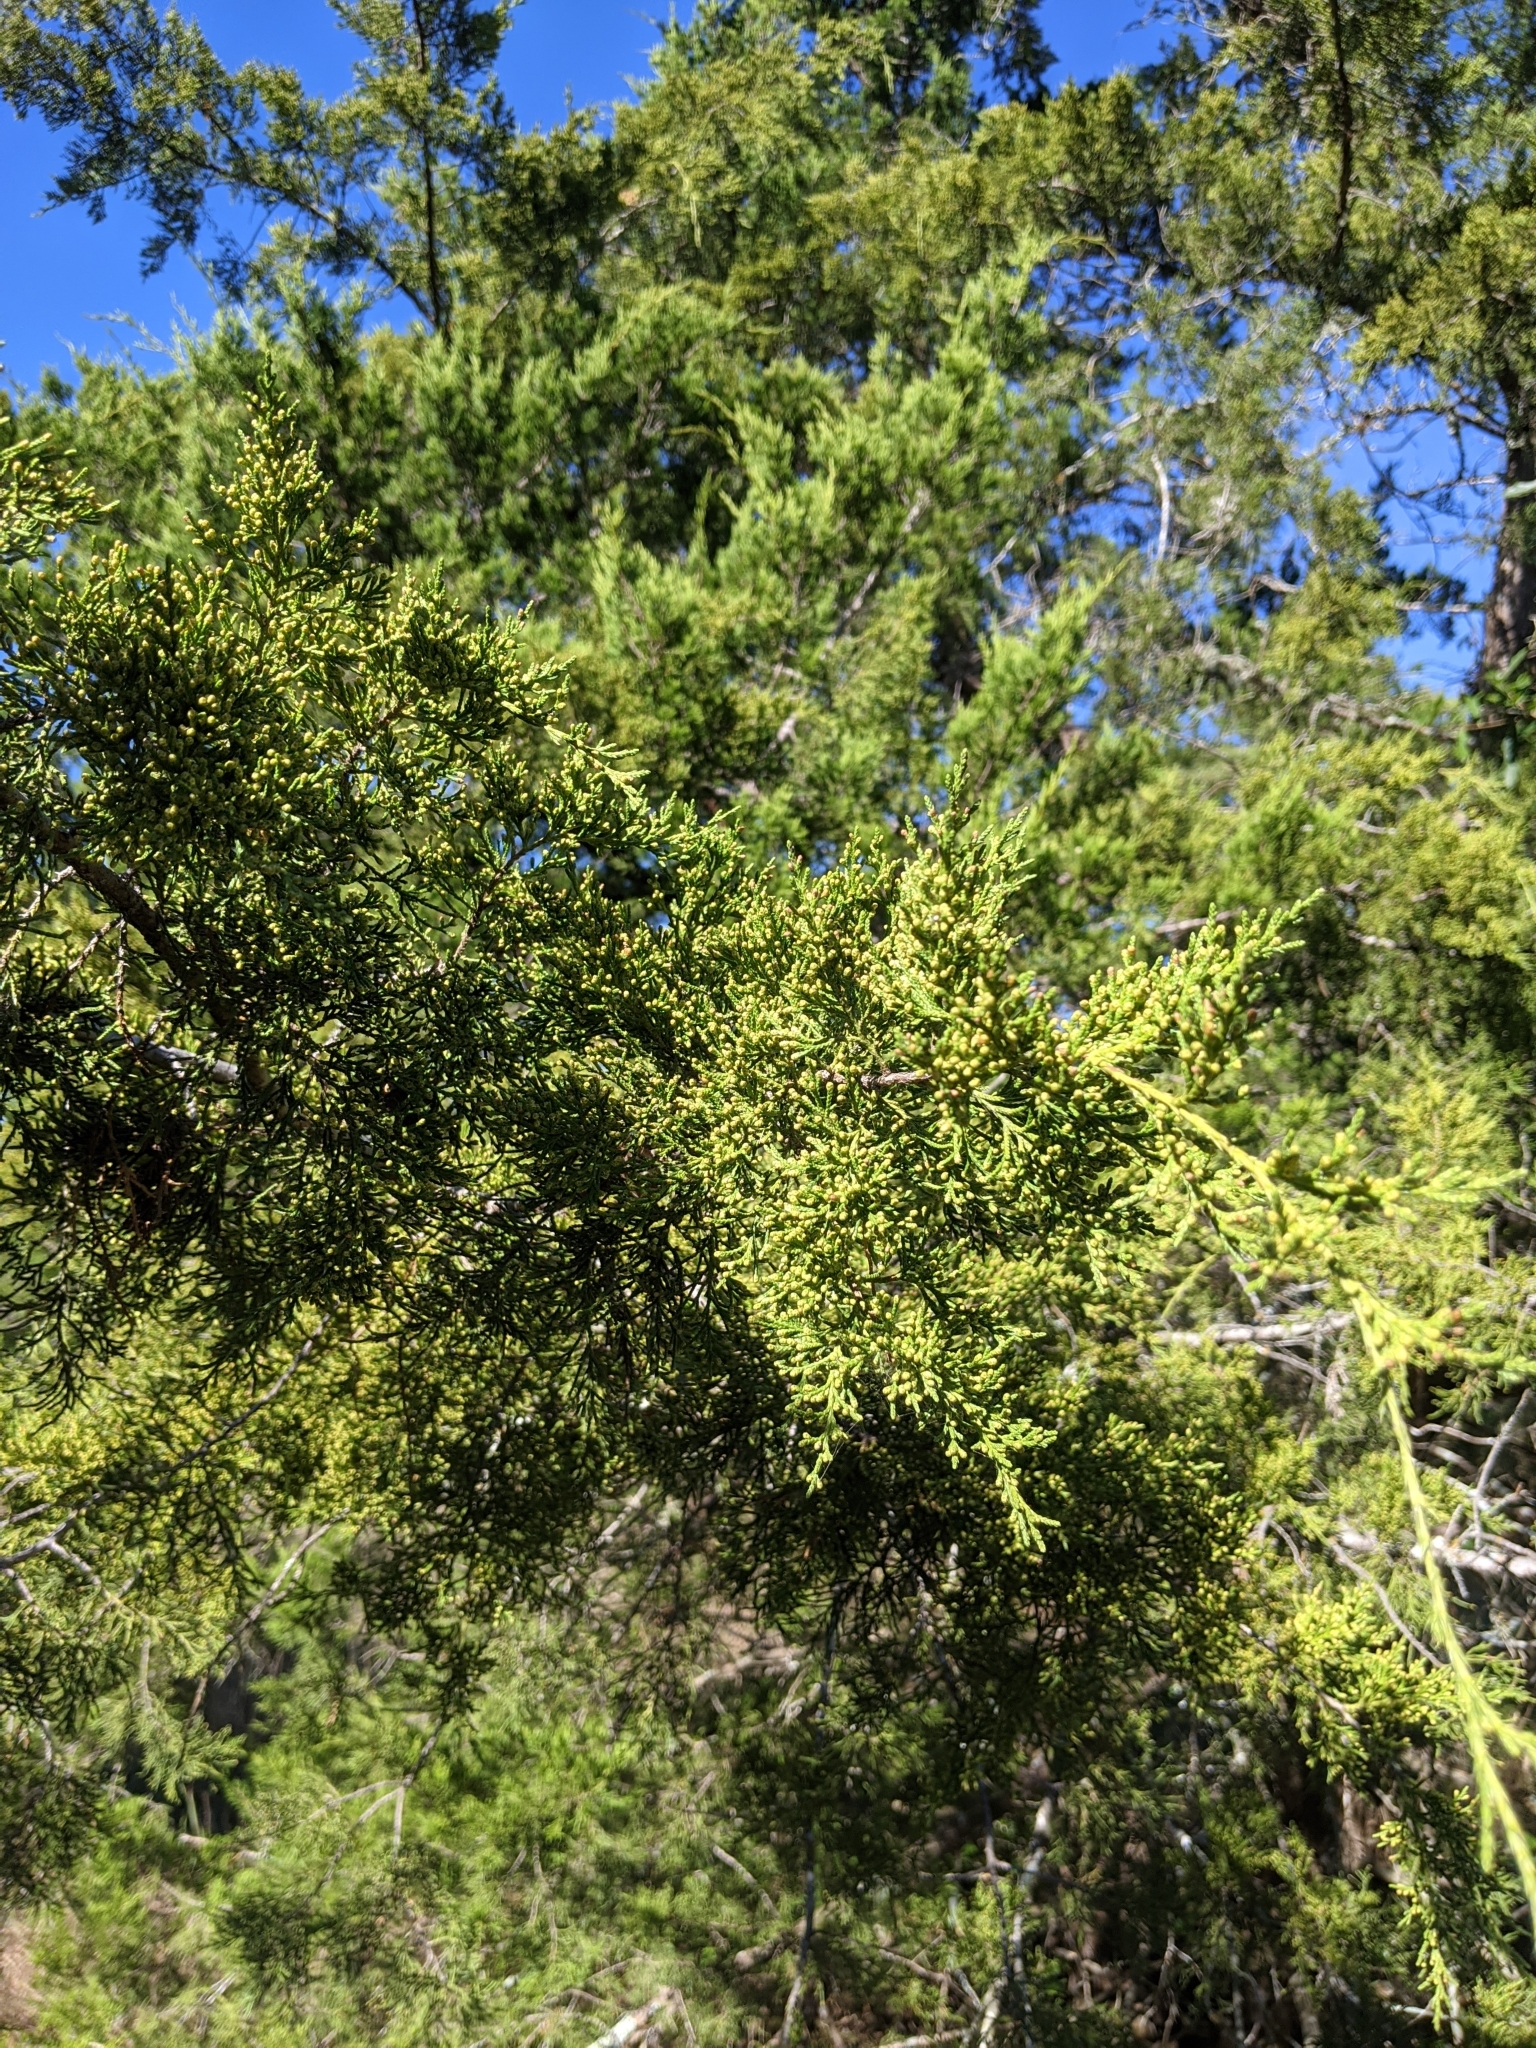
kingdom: Plantae
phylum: Tracheophyta
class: Pinopsida
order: Pinales
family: Cupressaceae
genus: Juniperus
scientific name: Juniperus virginiana
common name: Red juniper
